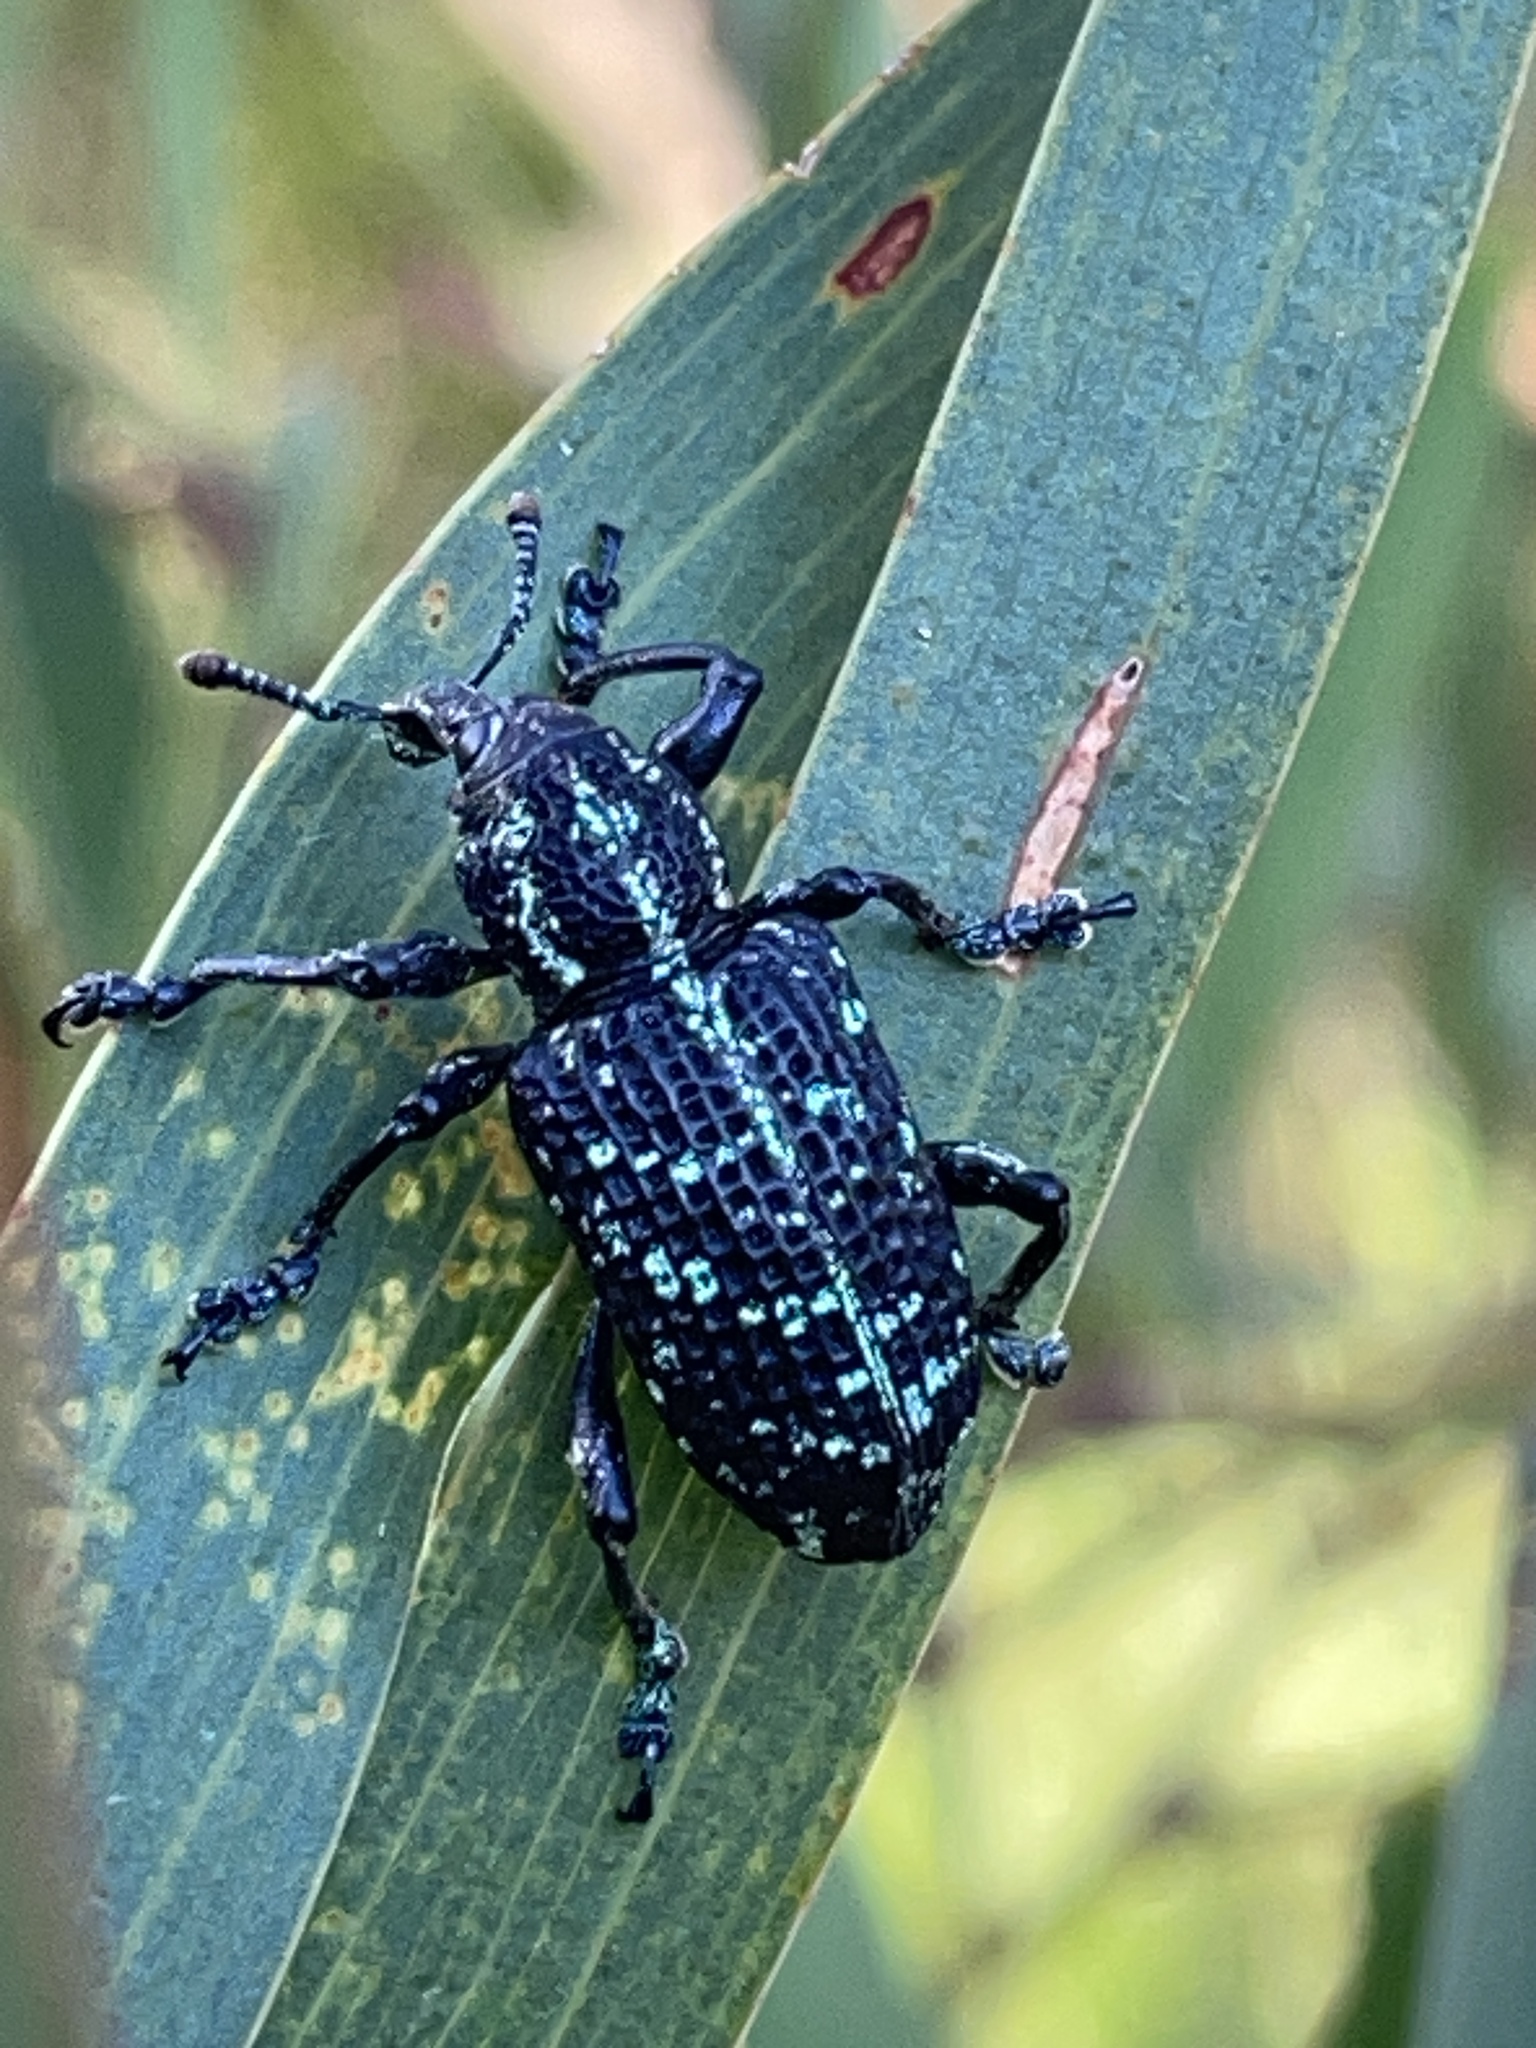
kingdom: Animalia
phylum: Arthropoda
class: Insecta
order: Coleoptera
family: Curculionidae
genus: Chrysolopus
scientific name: Chrysolopus spectabilis
